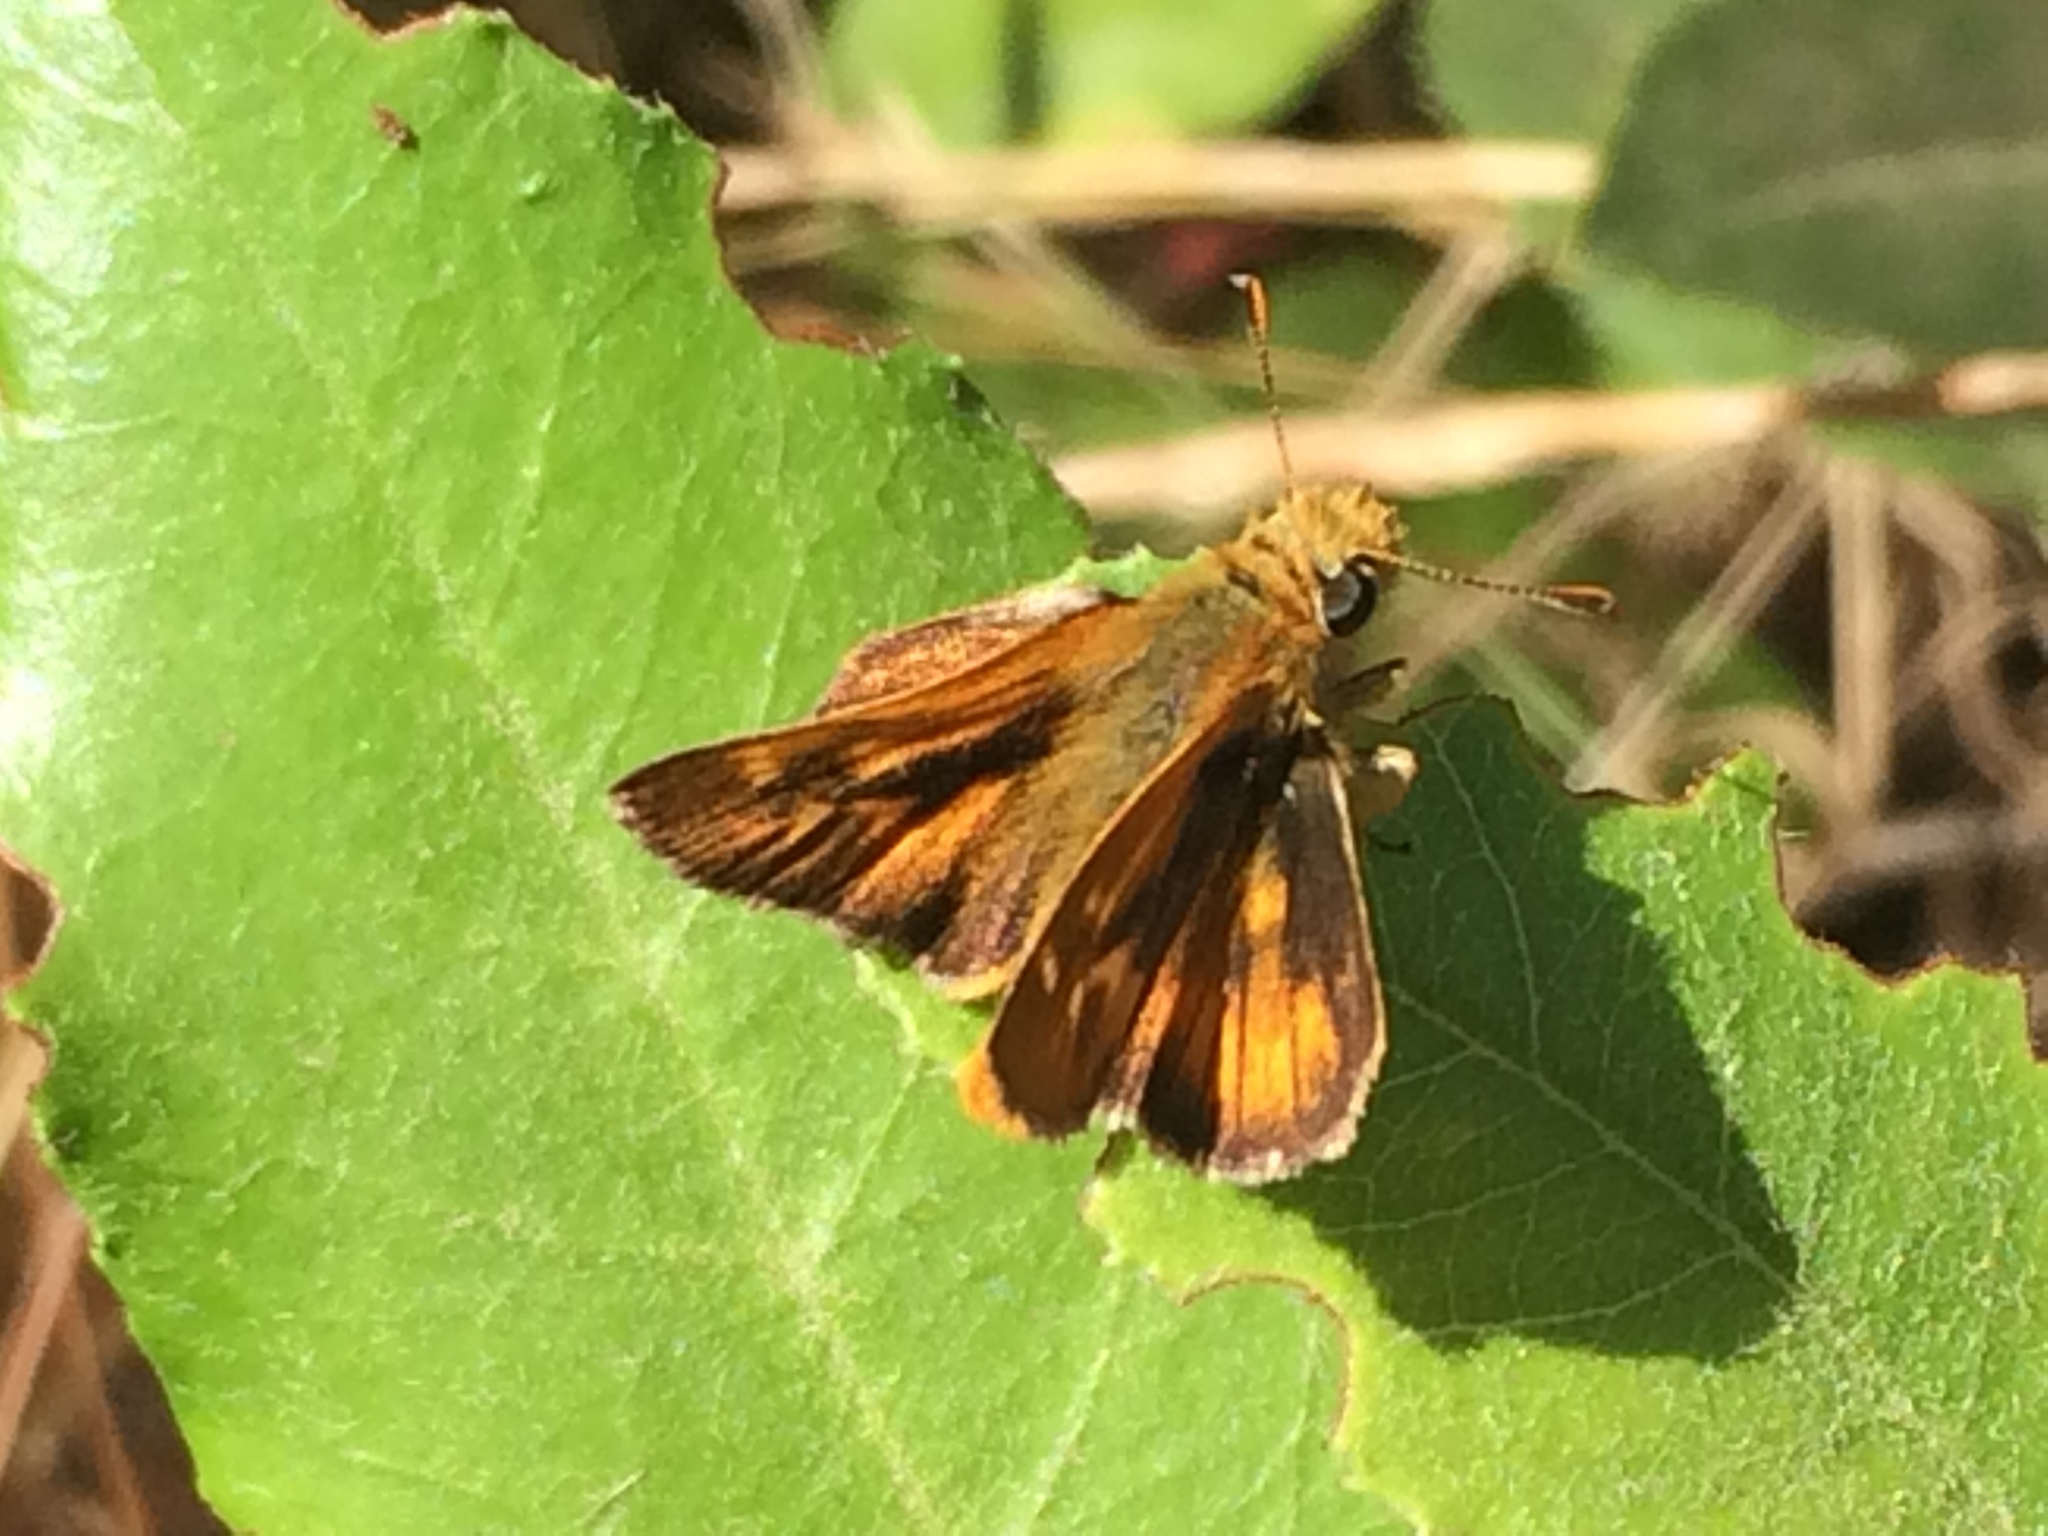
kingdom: Animalia
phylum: Arthropoda
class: Insecta
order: Lepidoptera
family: Hesperiidae
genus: Ochlodes
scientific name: Ochlodes agricola
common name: Rural skipper
